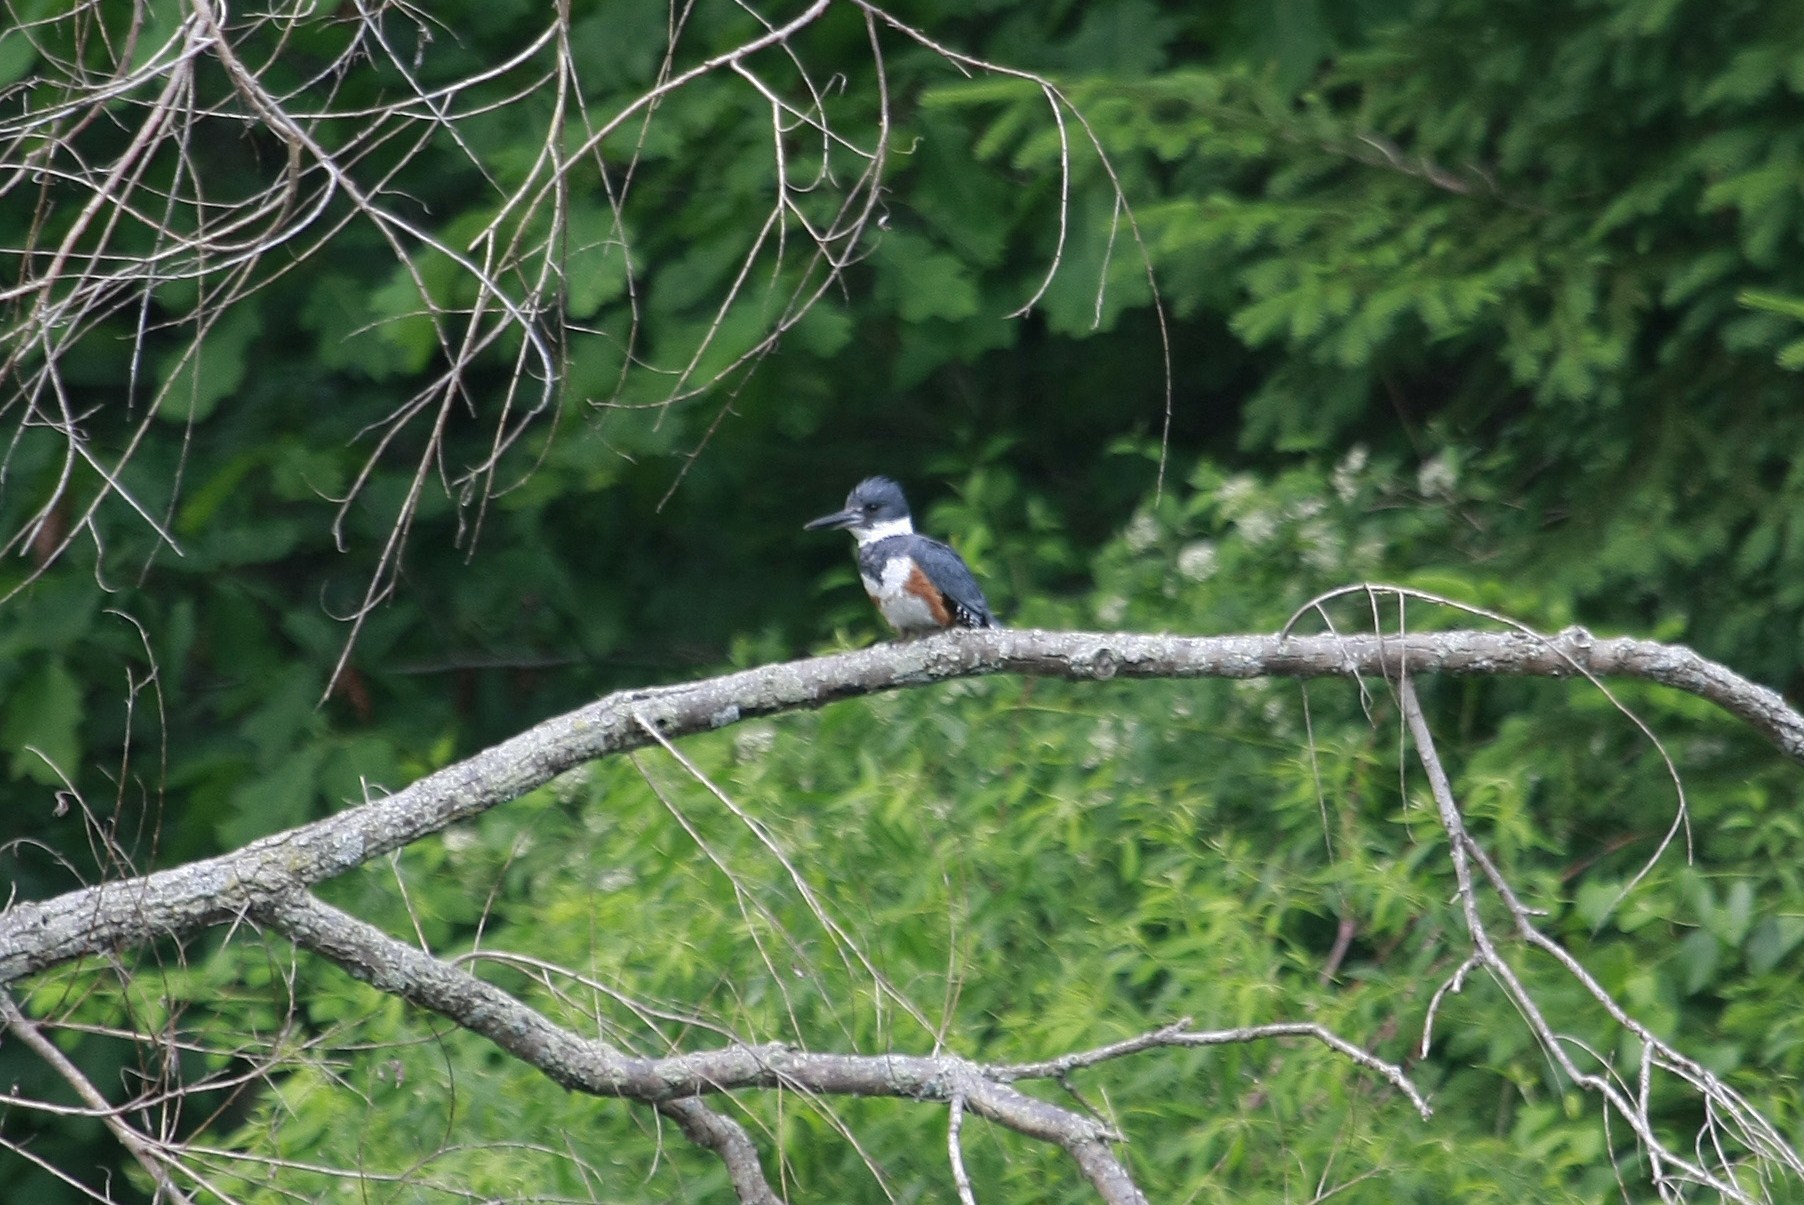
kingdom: Animalia
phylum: Chordata
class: Aves
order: Coraciiformes
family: Alcedinidae
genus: Megaceryle
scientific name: Megaceryle alcyon
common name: Belted kingfisher
